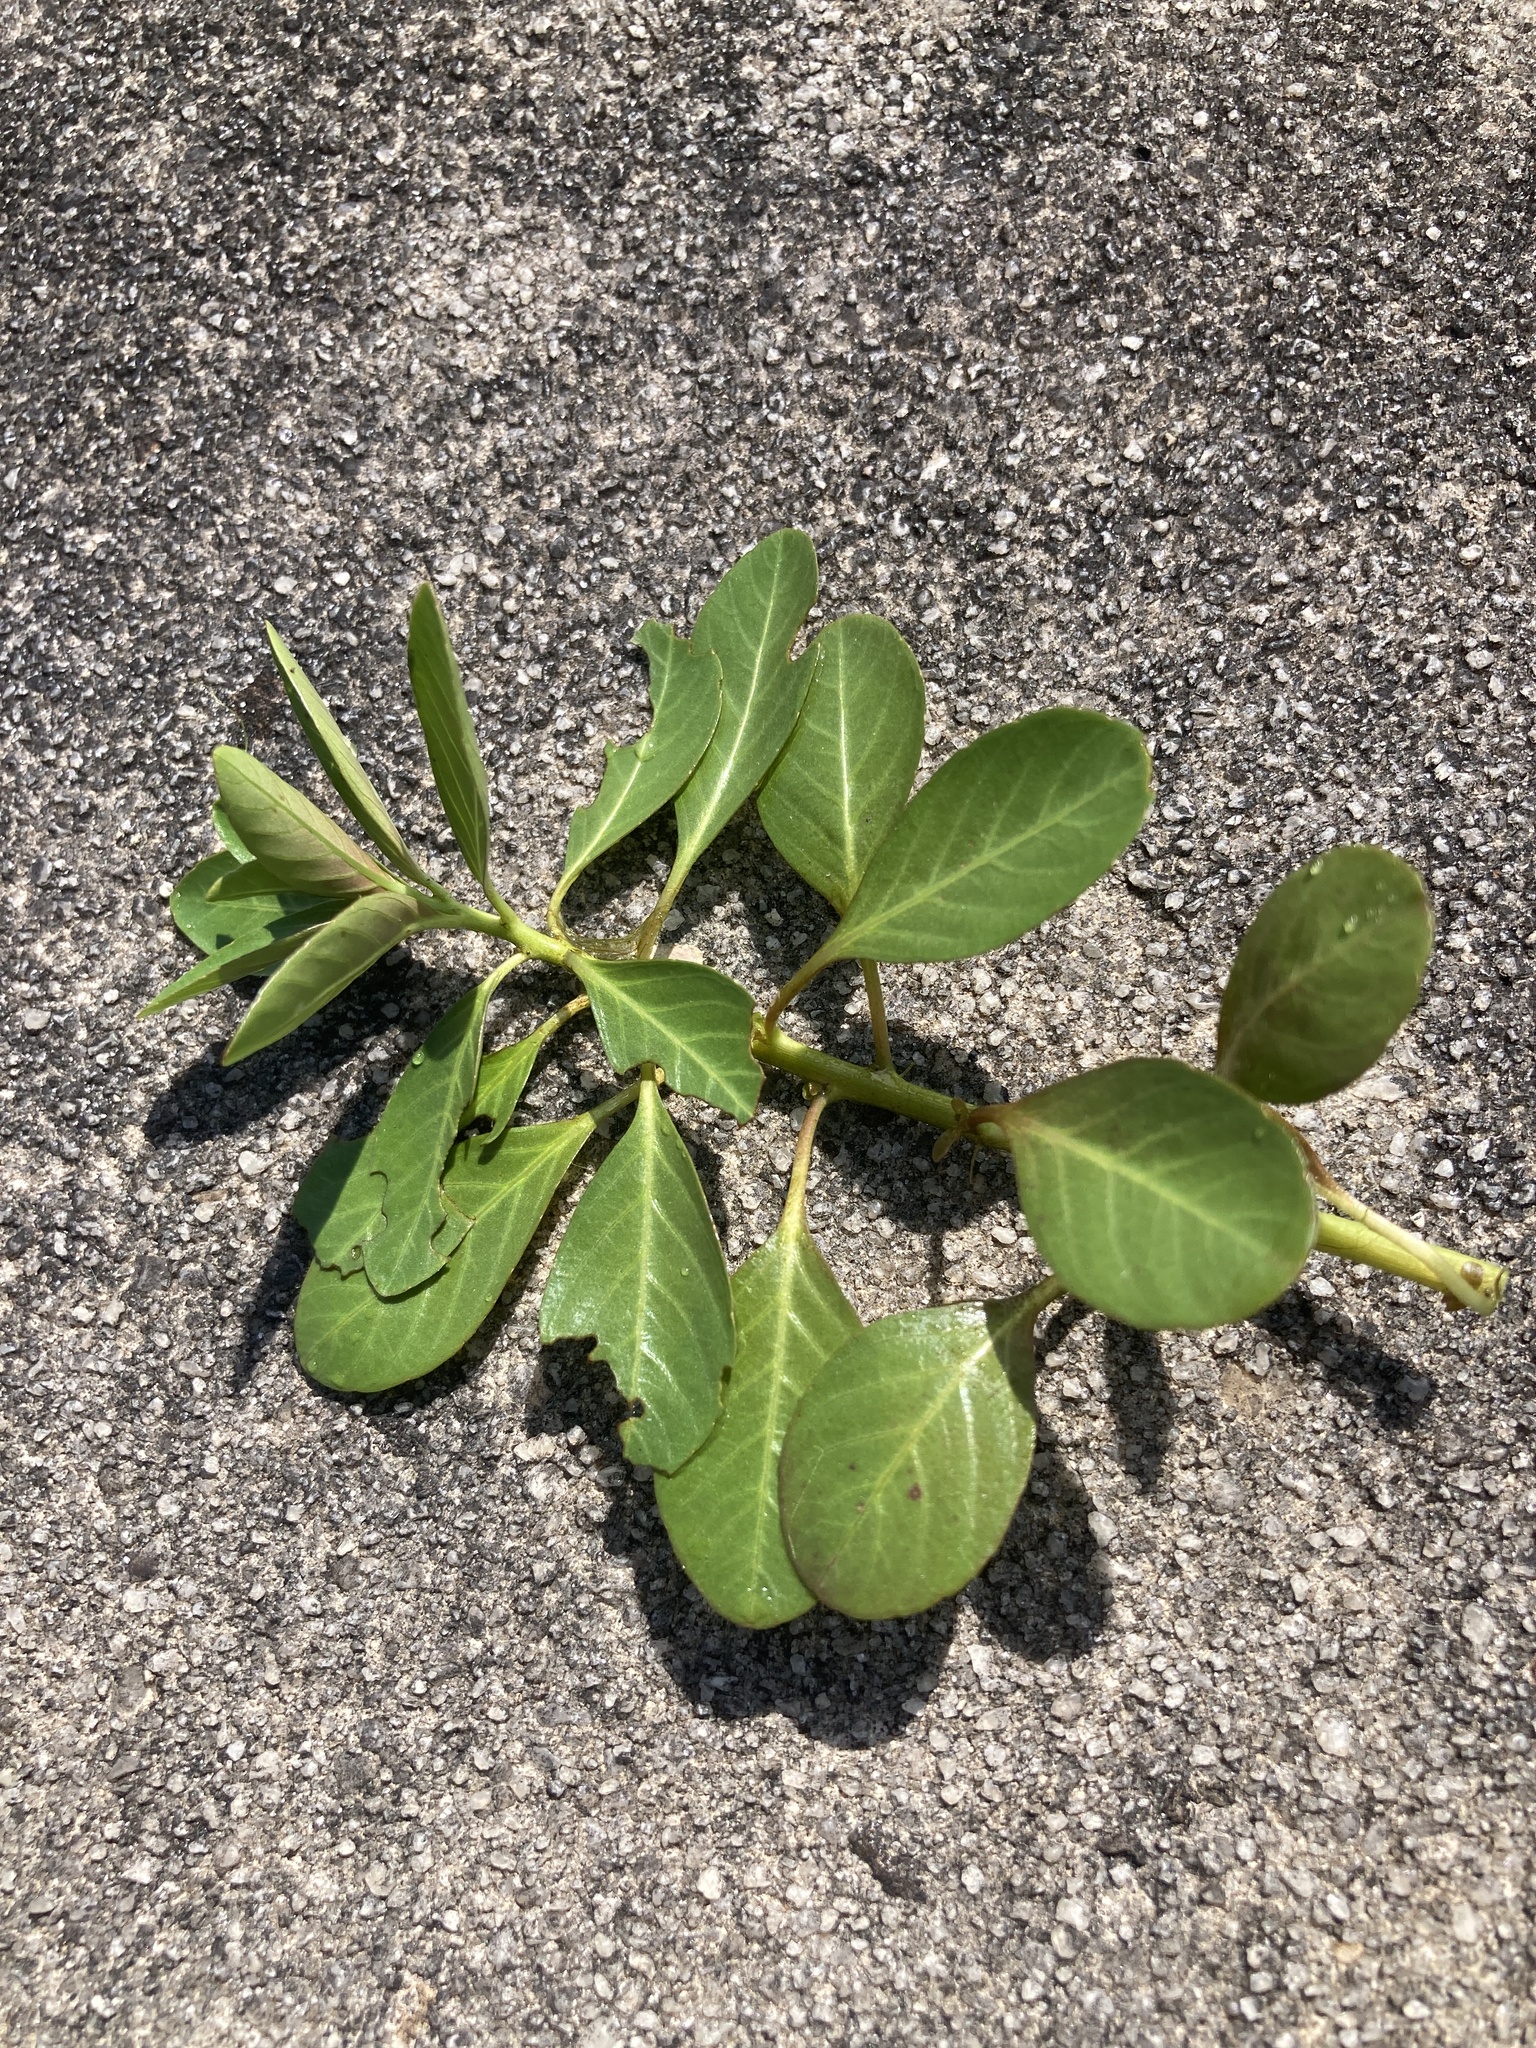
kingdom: Plantae
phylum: Tracheophyta
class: Magnoliopsida
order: Myrtales
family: Onagraceae
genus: Ludwigia
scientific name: Ludwigia peploides
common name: Floating primrose-willow
